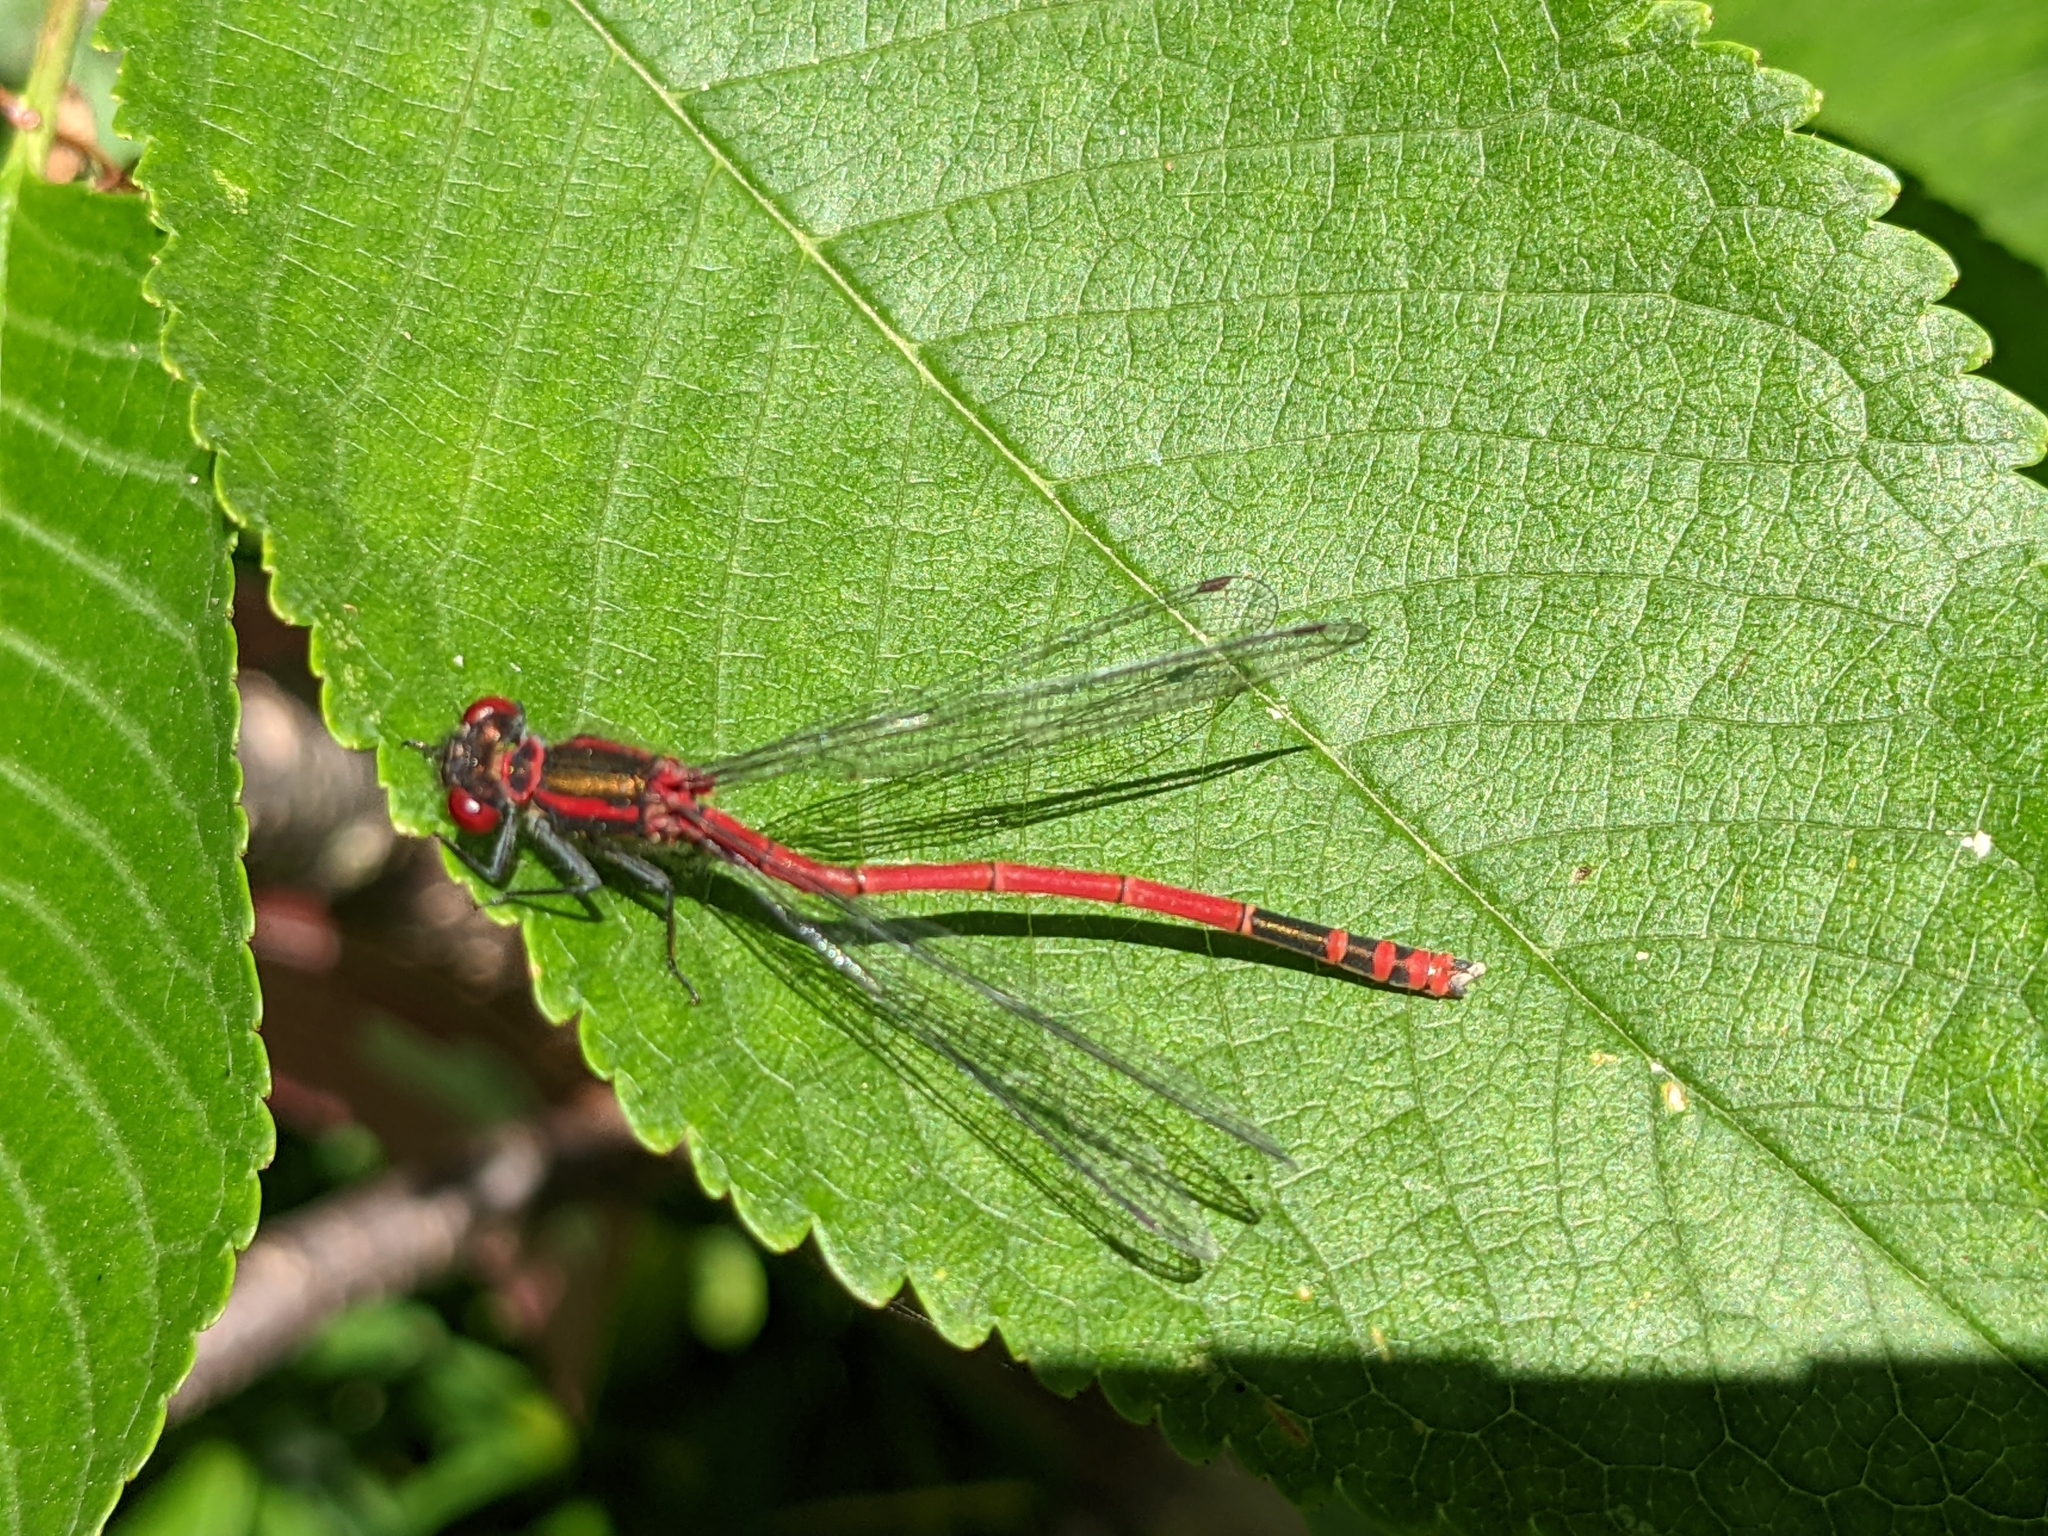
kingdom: Animalia
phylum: Arthropoda
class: Insecta
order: Odonata
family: Coenagrionidae
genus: Pyrrhosoma
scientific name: Pyrrhosoma nymphula
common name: Large red damsel
